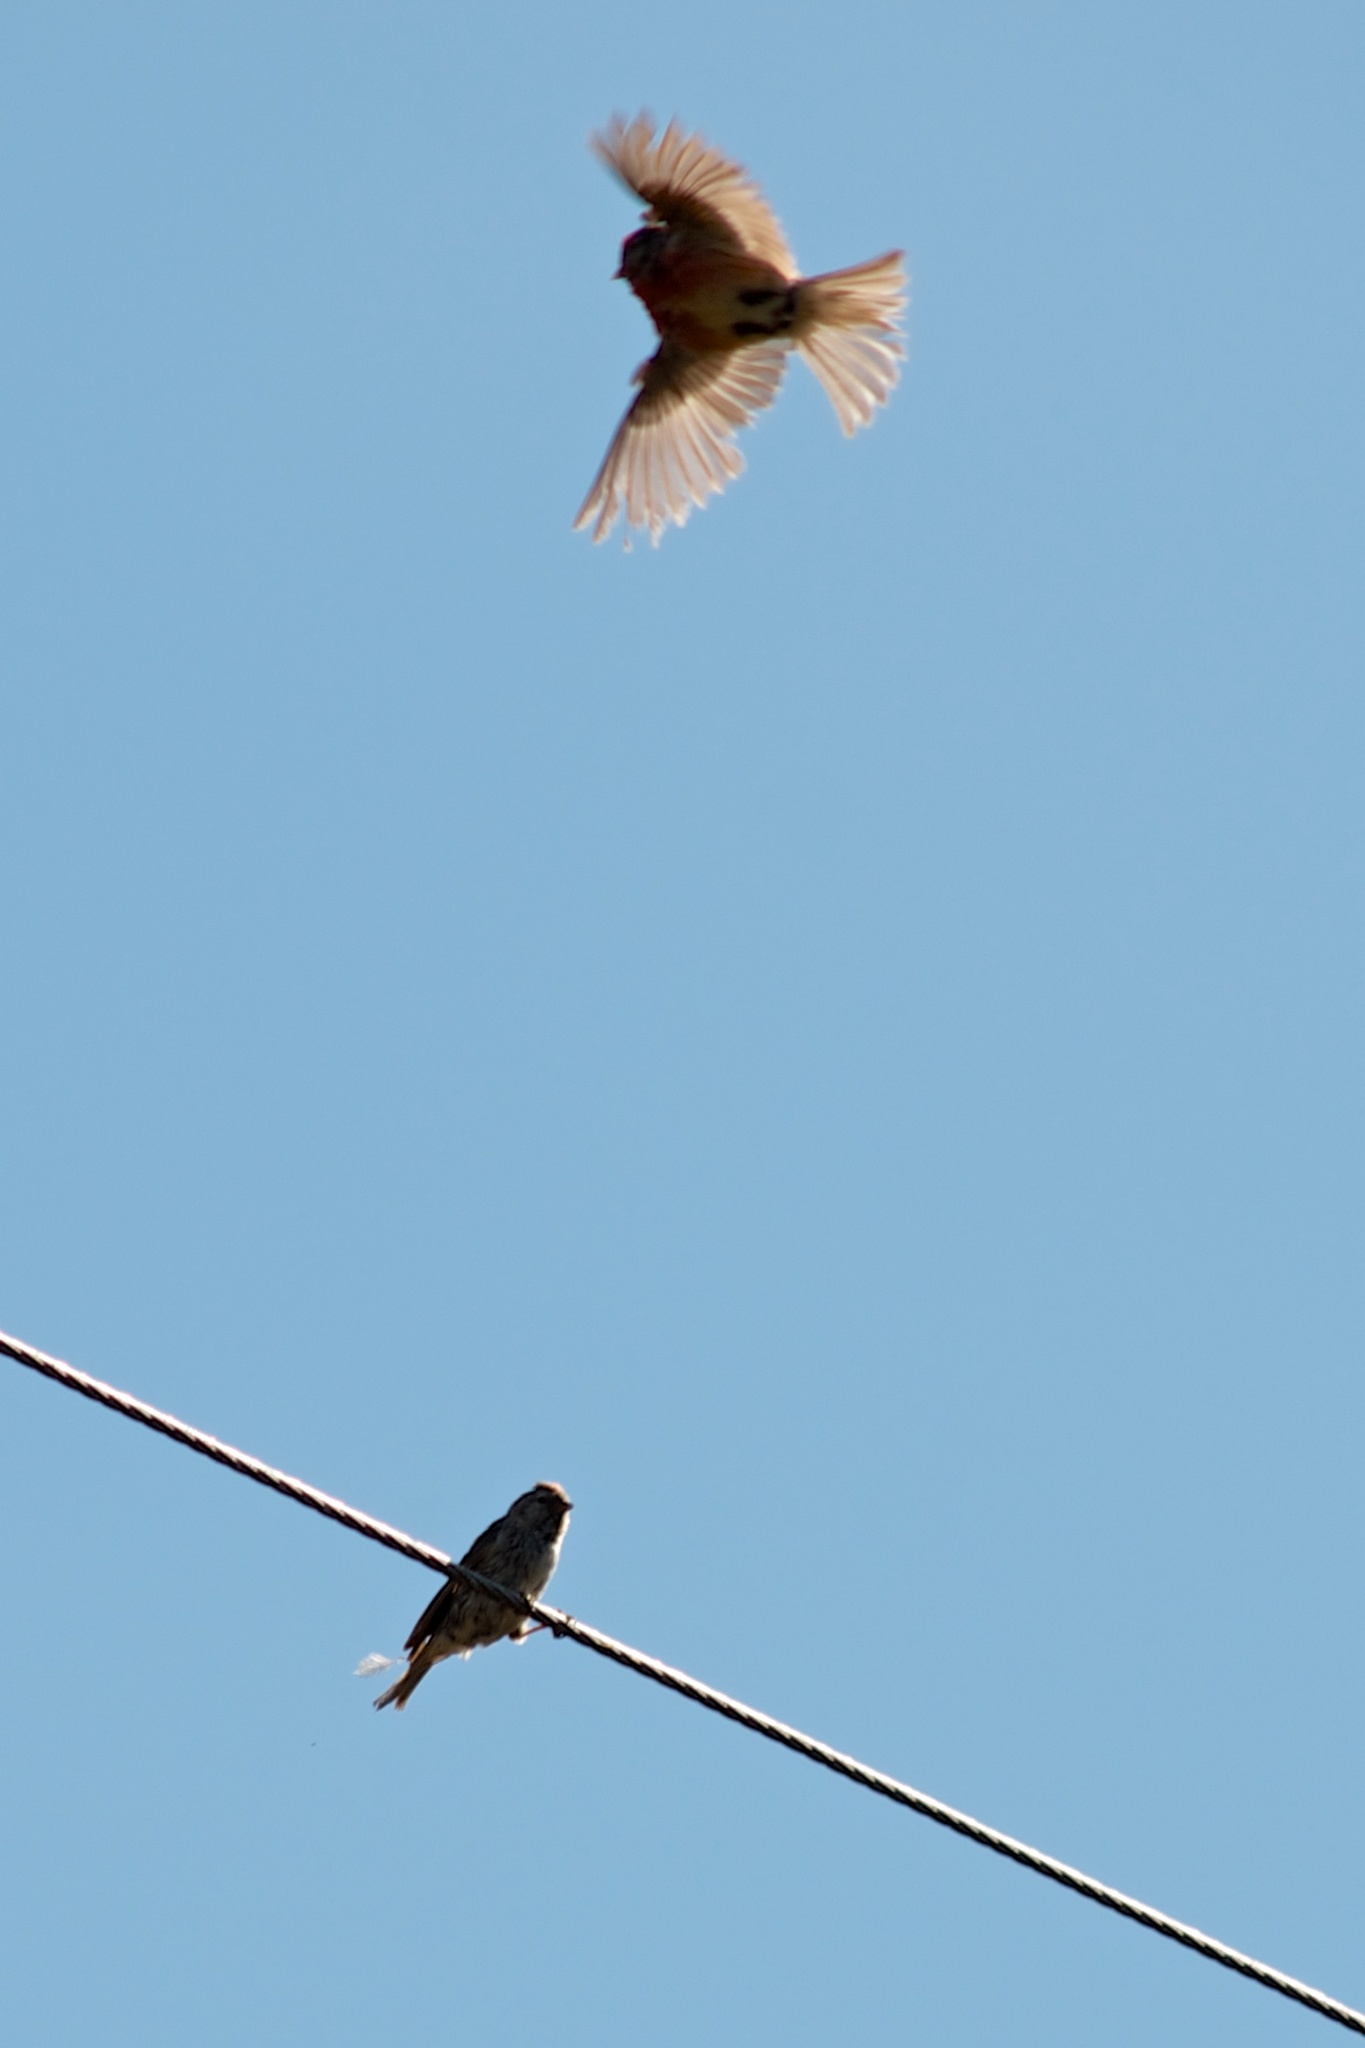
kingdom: Animalia
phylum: Chordata
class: Aves
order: Passeriformes
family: Fringillidae
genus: Acanthis
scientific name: Acanthis flammea
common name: Common redpoll
